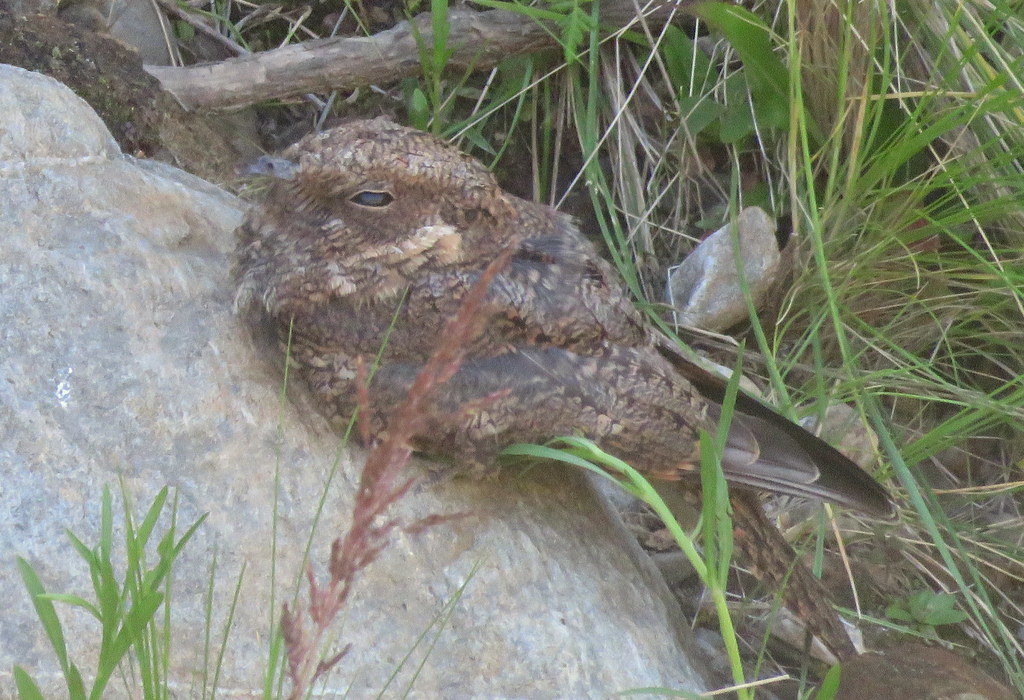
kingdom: Animalia
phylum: Chordata
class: Aves
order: Caprimulgiformes
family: Caprimulgidae
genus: Systellura
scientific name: Systellura longirostris
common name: Band-winged nightjar
